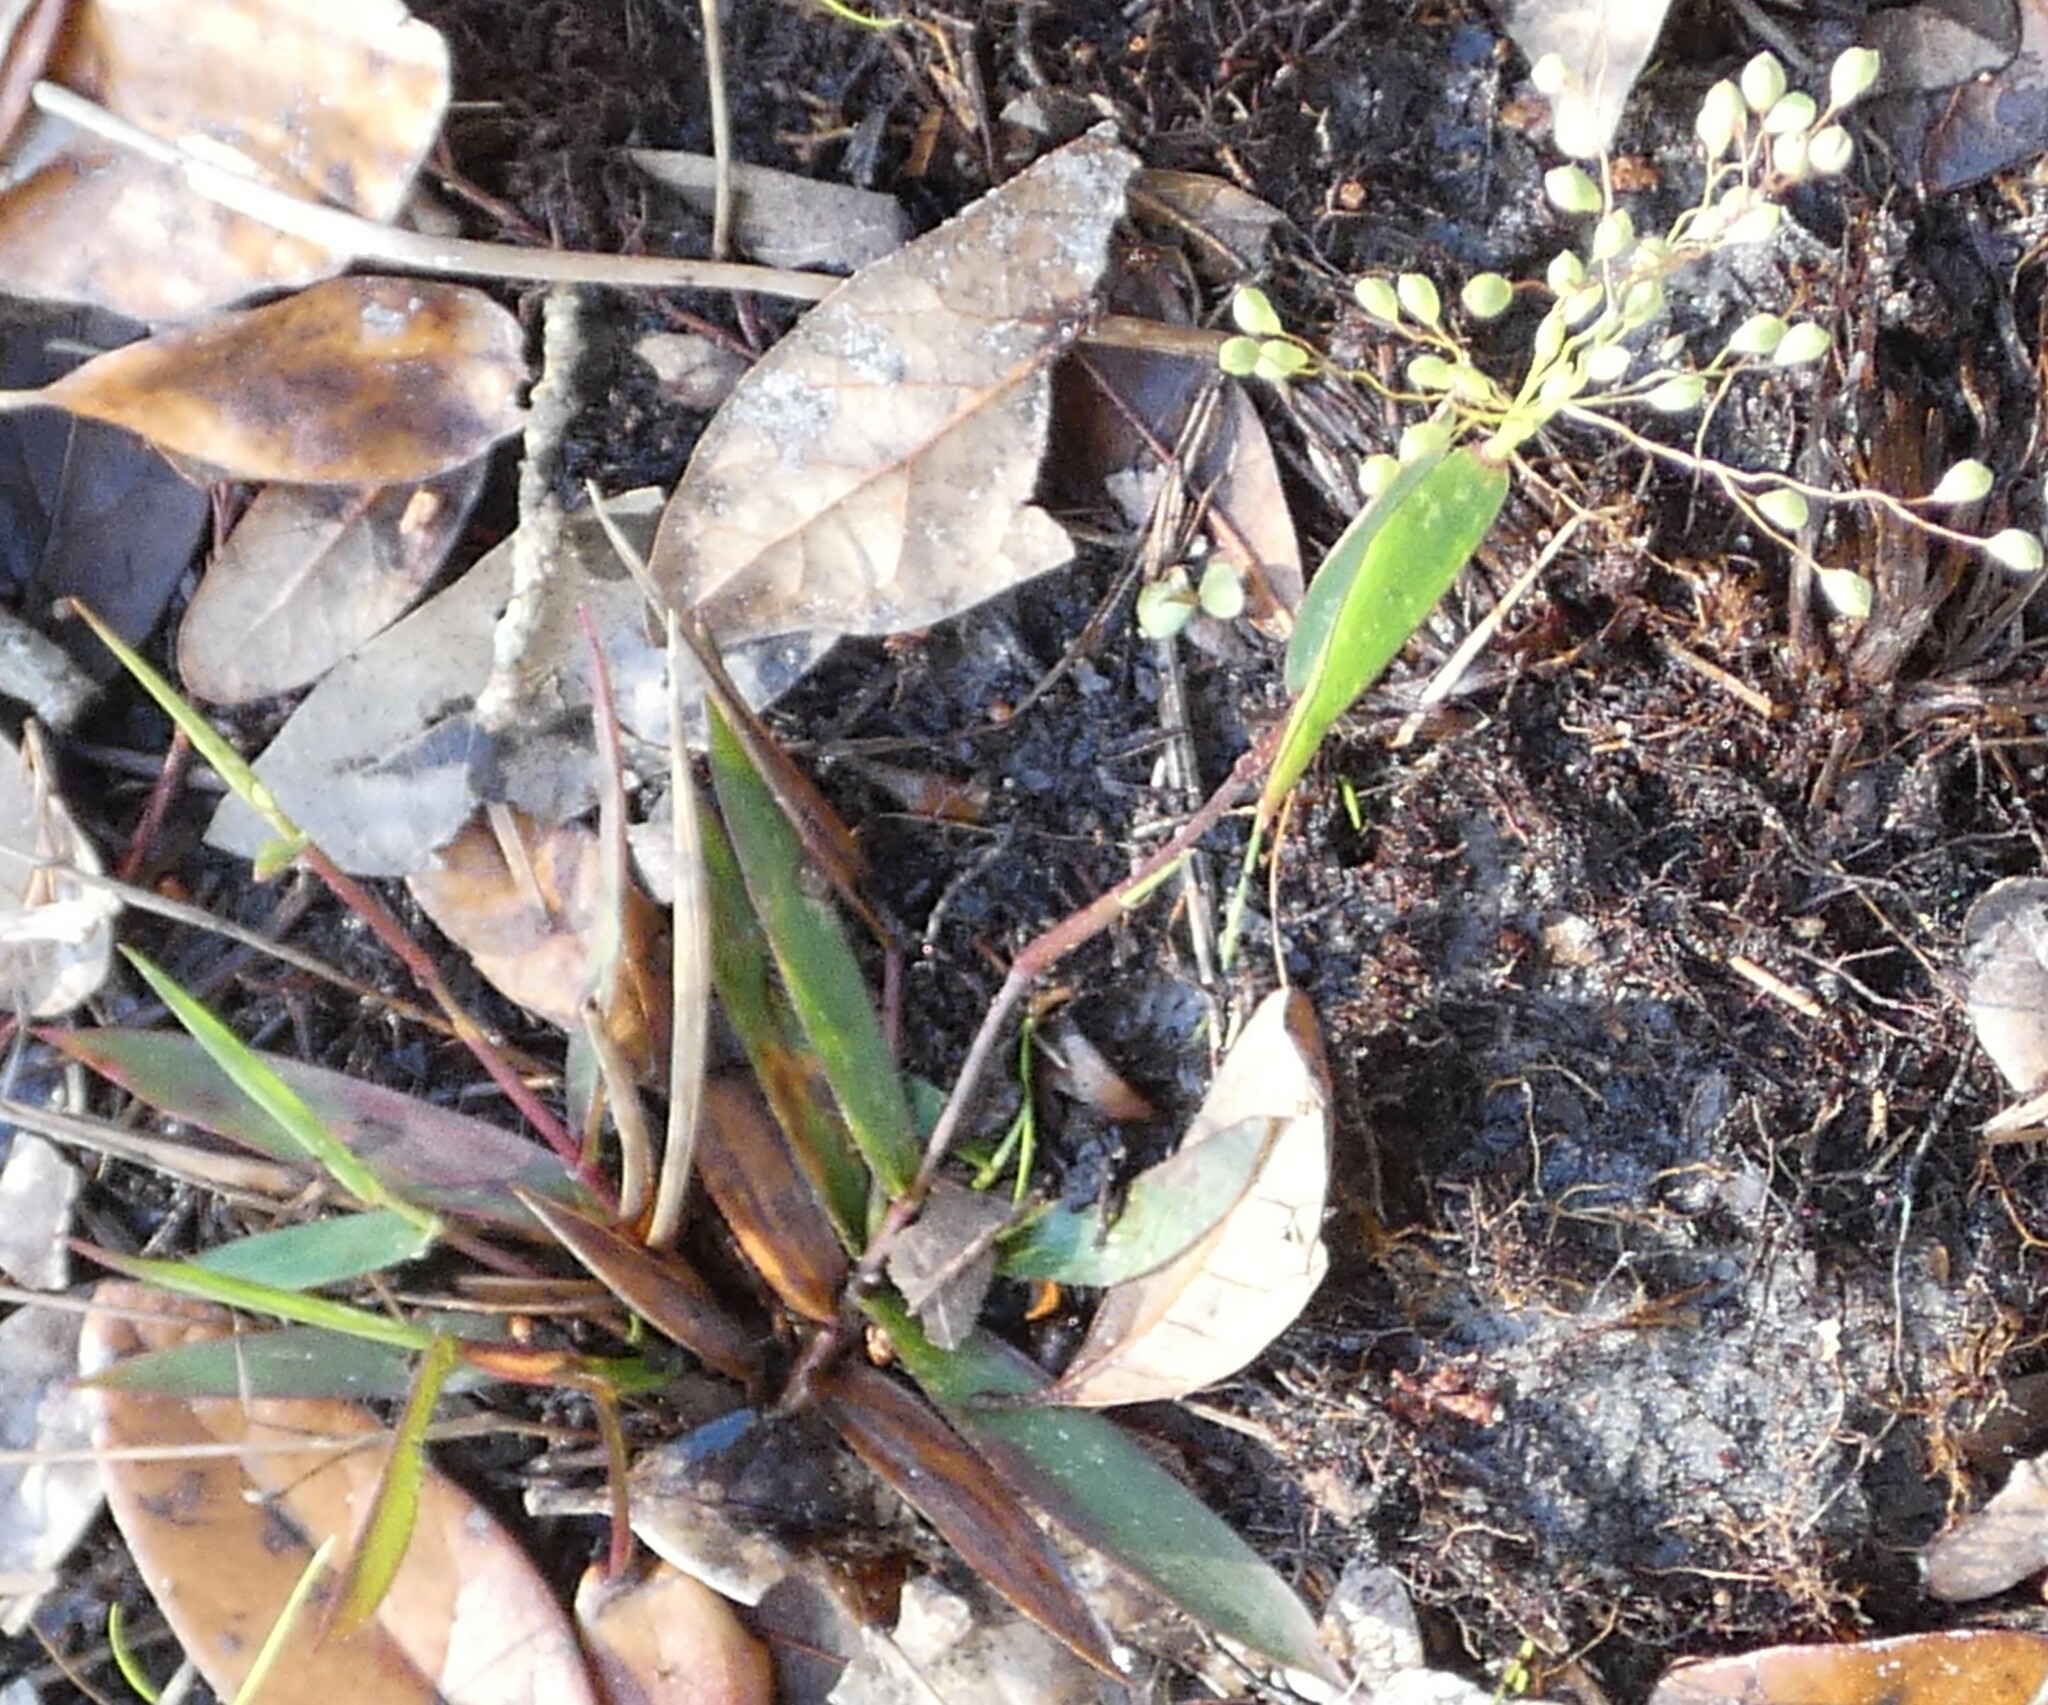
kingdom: Plantae
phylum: Tracheophyta
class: Liliopsida
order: Poales
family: Poaceae
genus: Dichanthelium
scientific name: Dichanthelium strigosum
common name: Cushion-tuft panic grass
